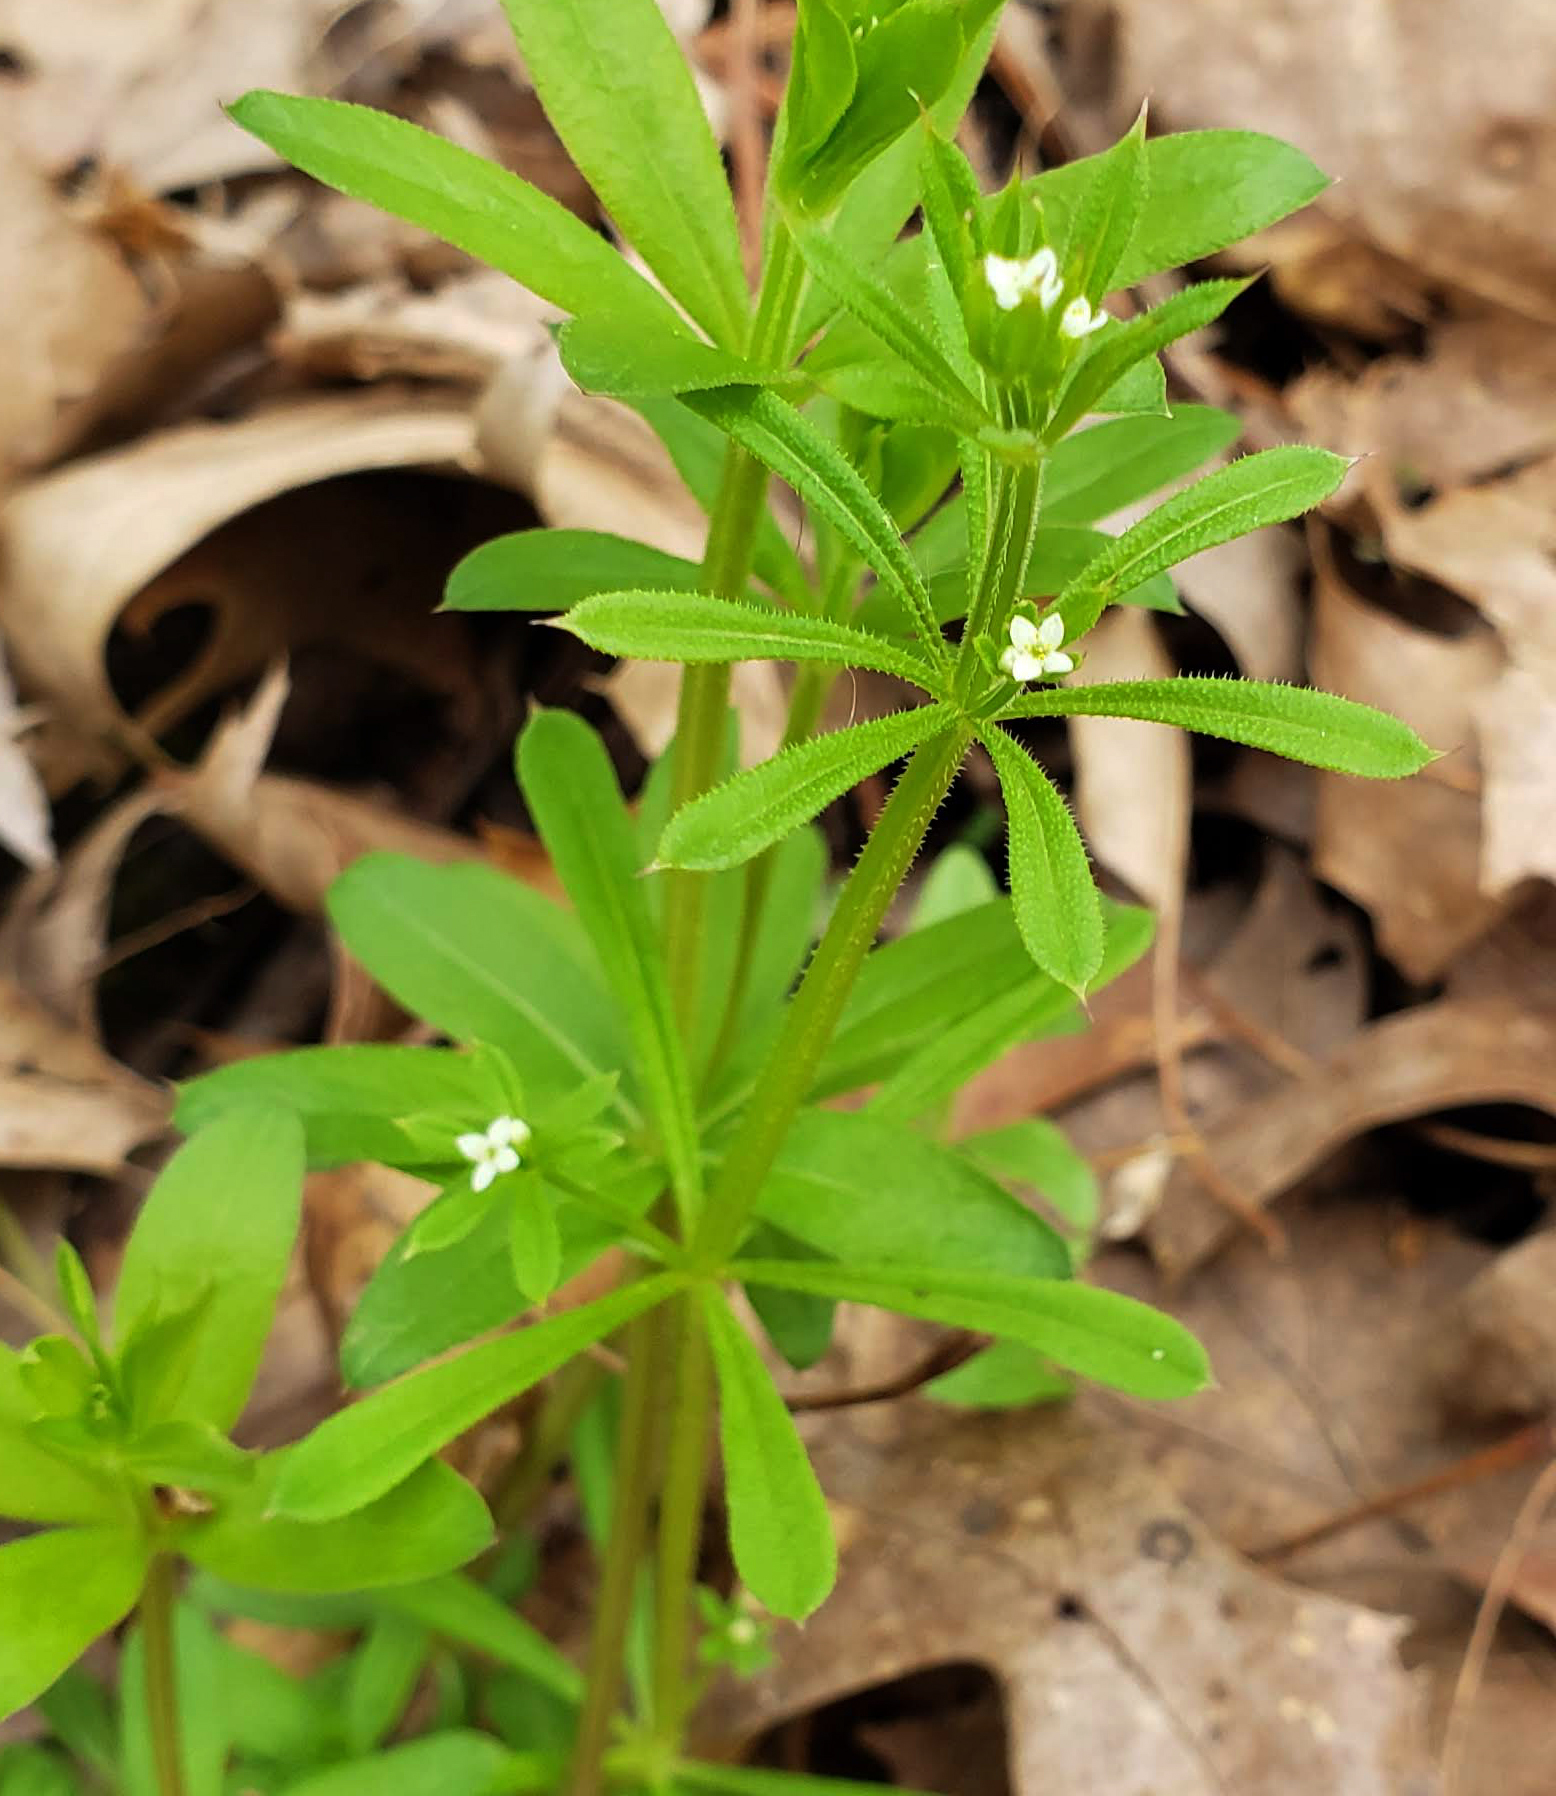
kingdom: Plantae
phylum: Tracheophyta
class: Magnoliopsida
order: Gentianales
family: Rubiaceae
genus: Galium
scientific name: Galium aparine
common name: Cleavers
